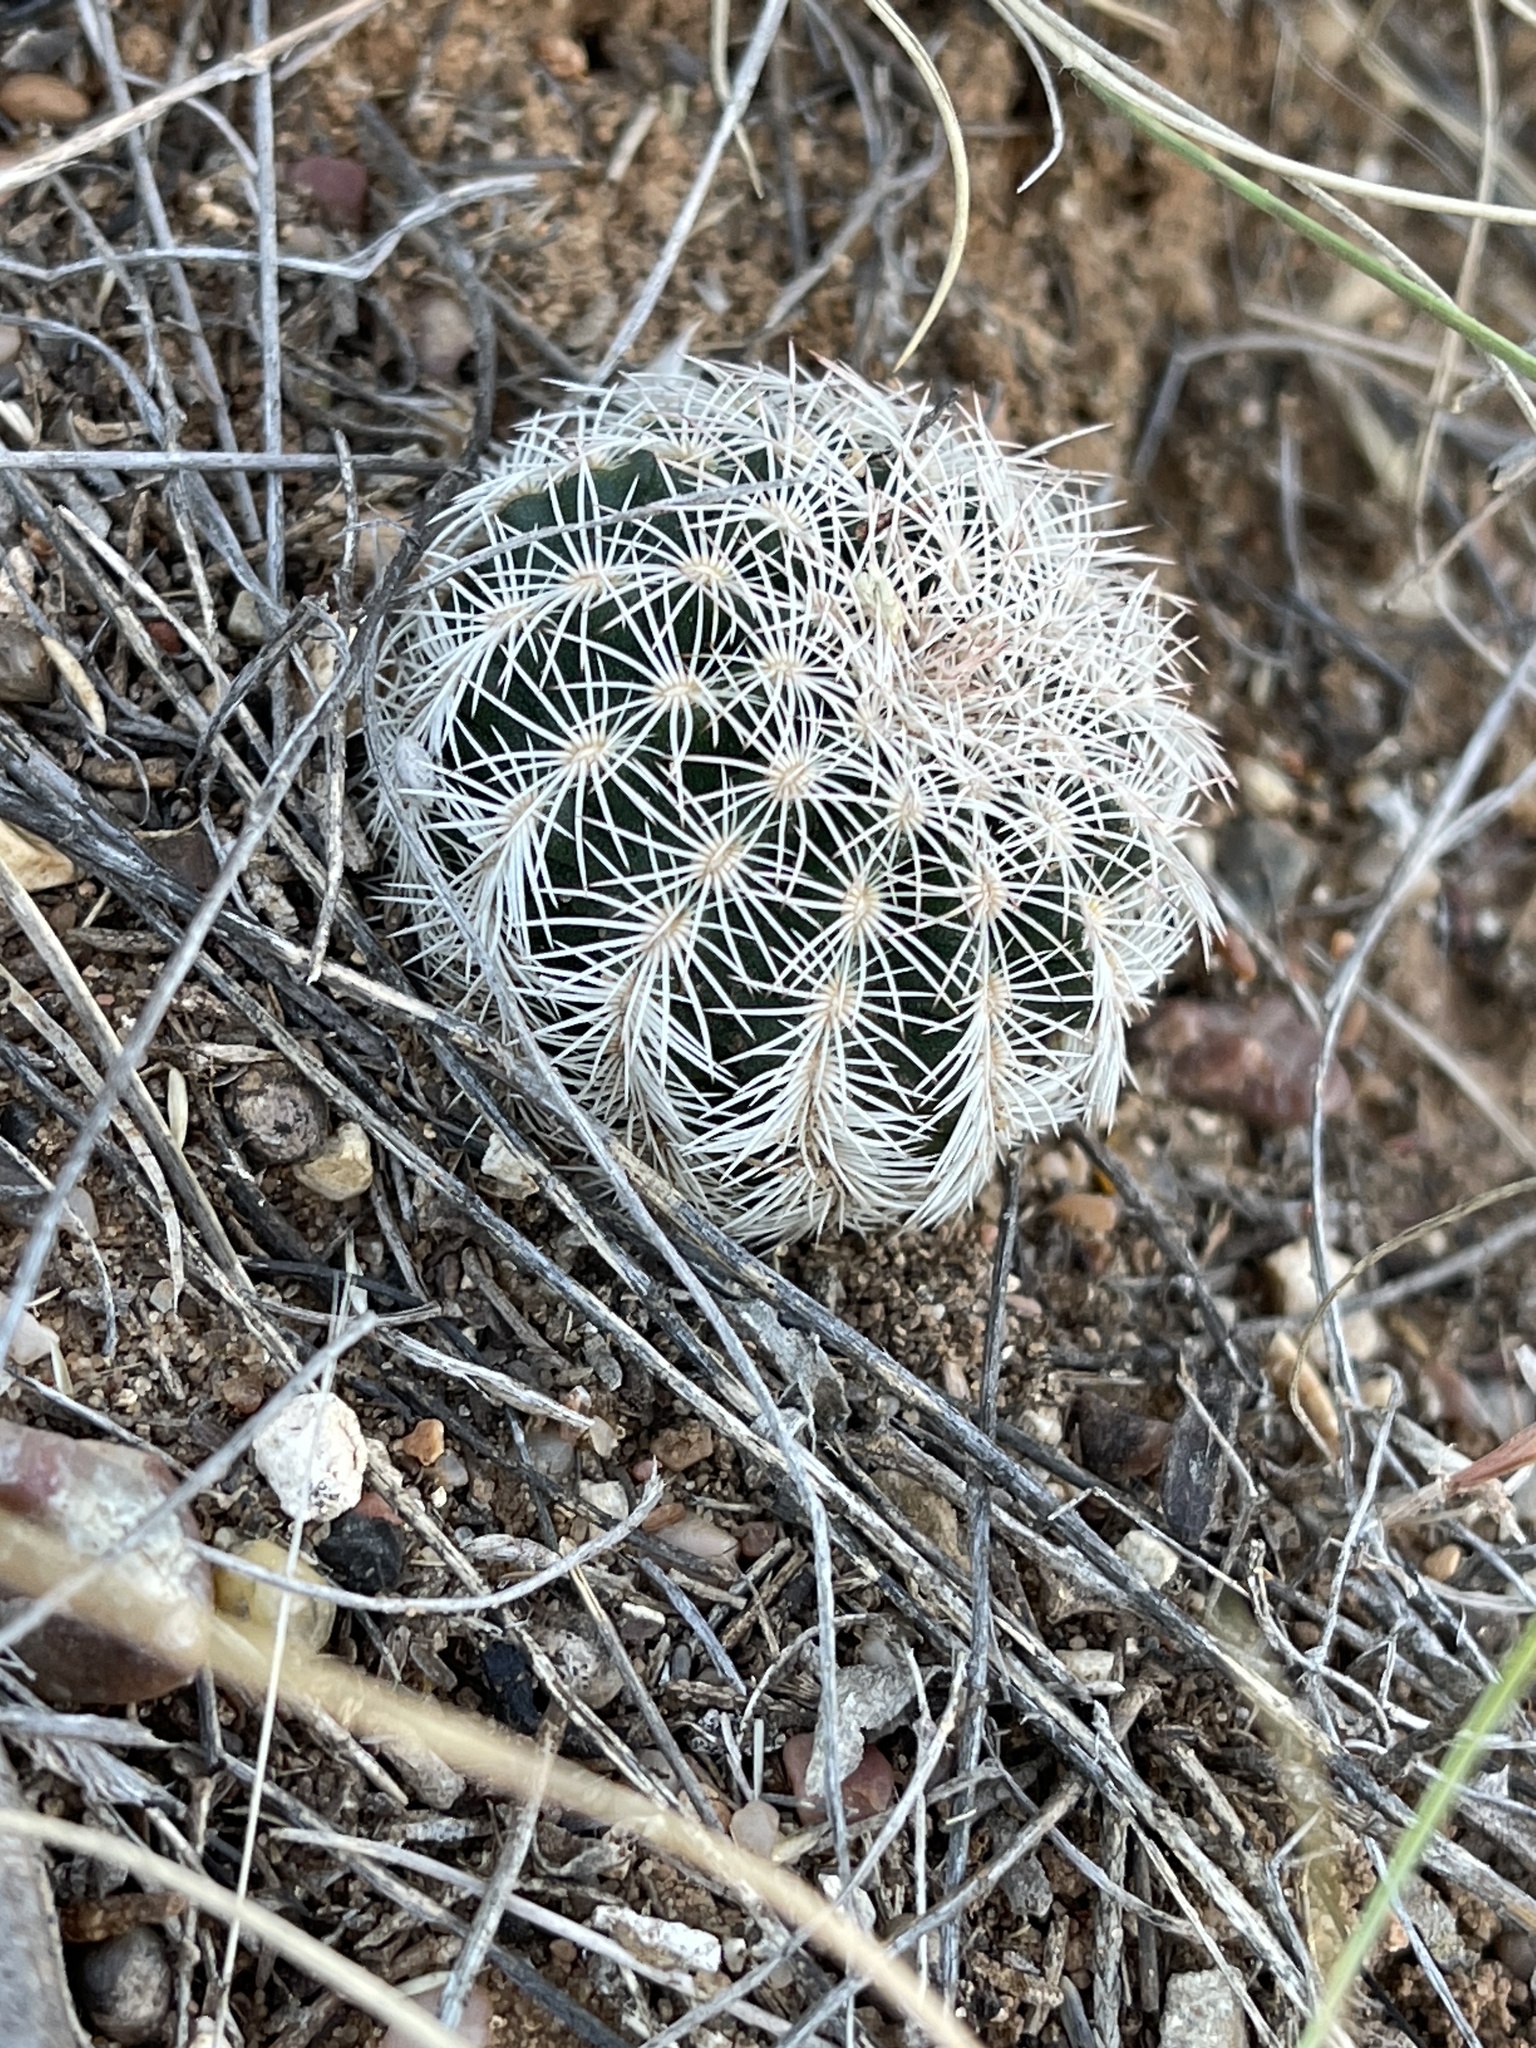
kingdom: Plantae
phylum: Tracheophyta
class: Magnoliopsida
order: Caryophyllales
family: Cactaceae
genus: Echinocereus
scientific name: Echinocereus reichenbachii
